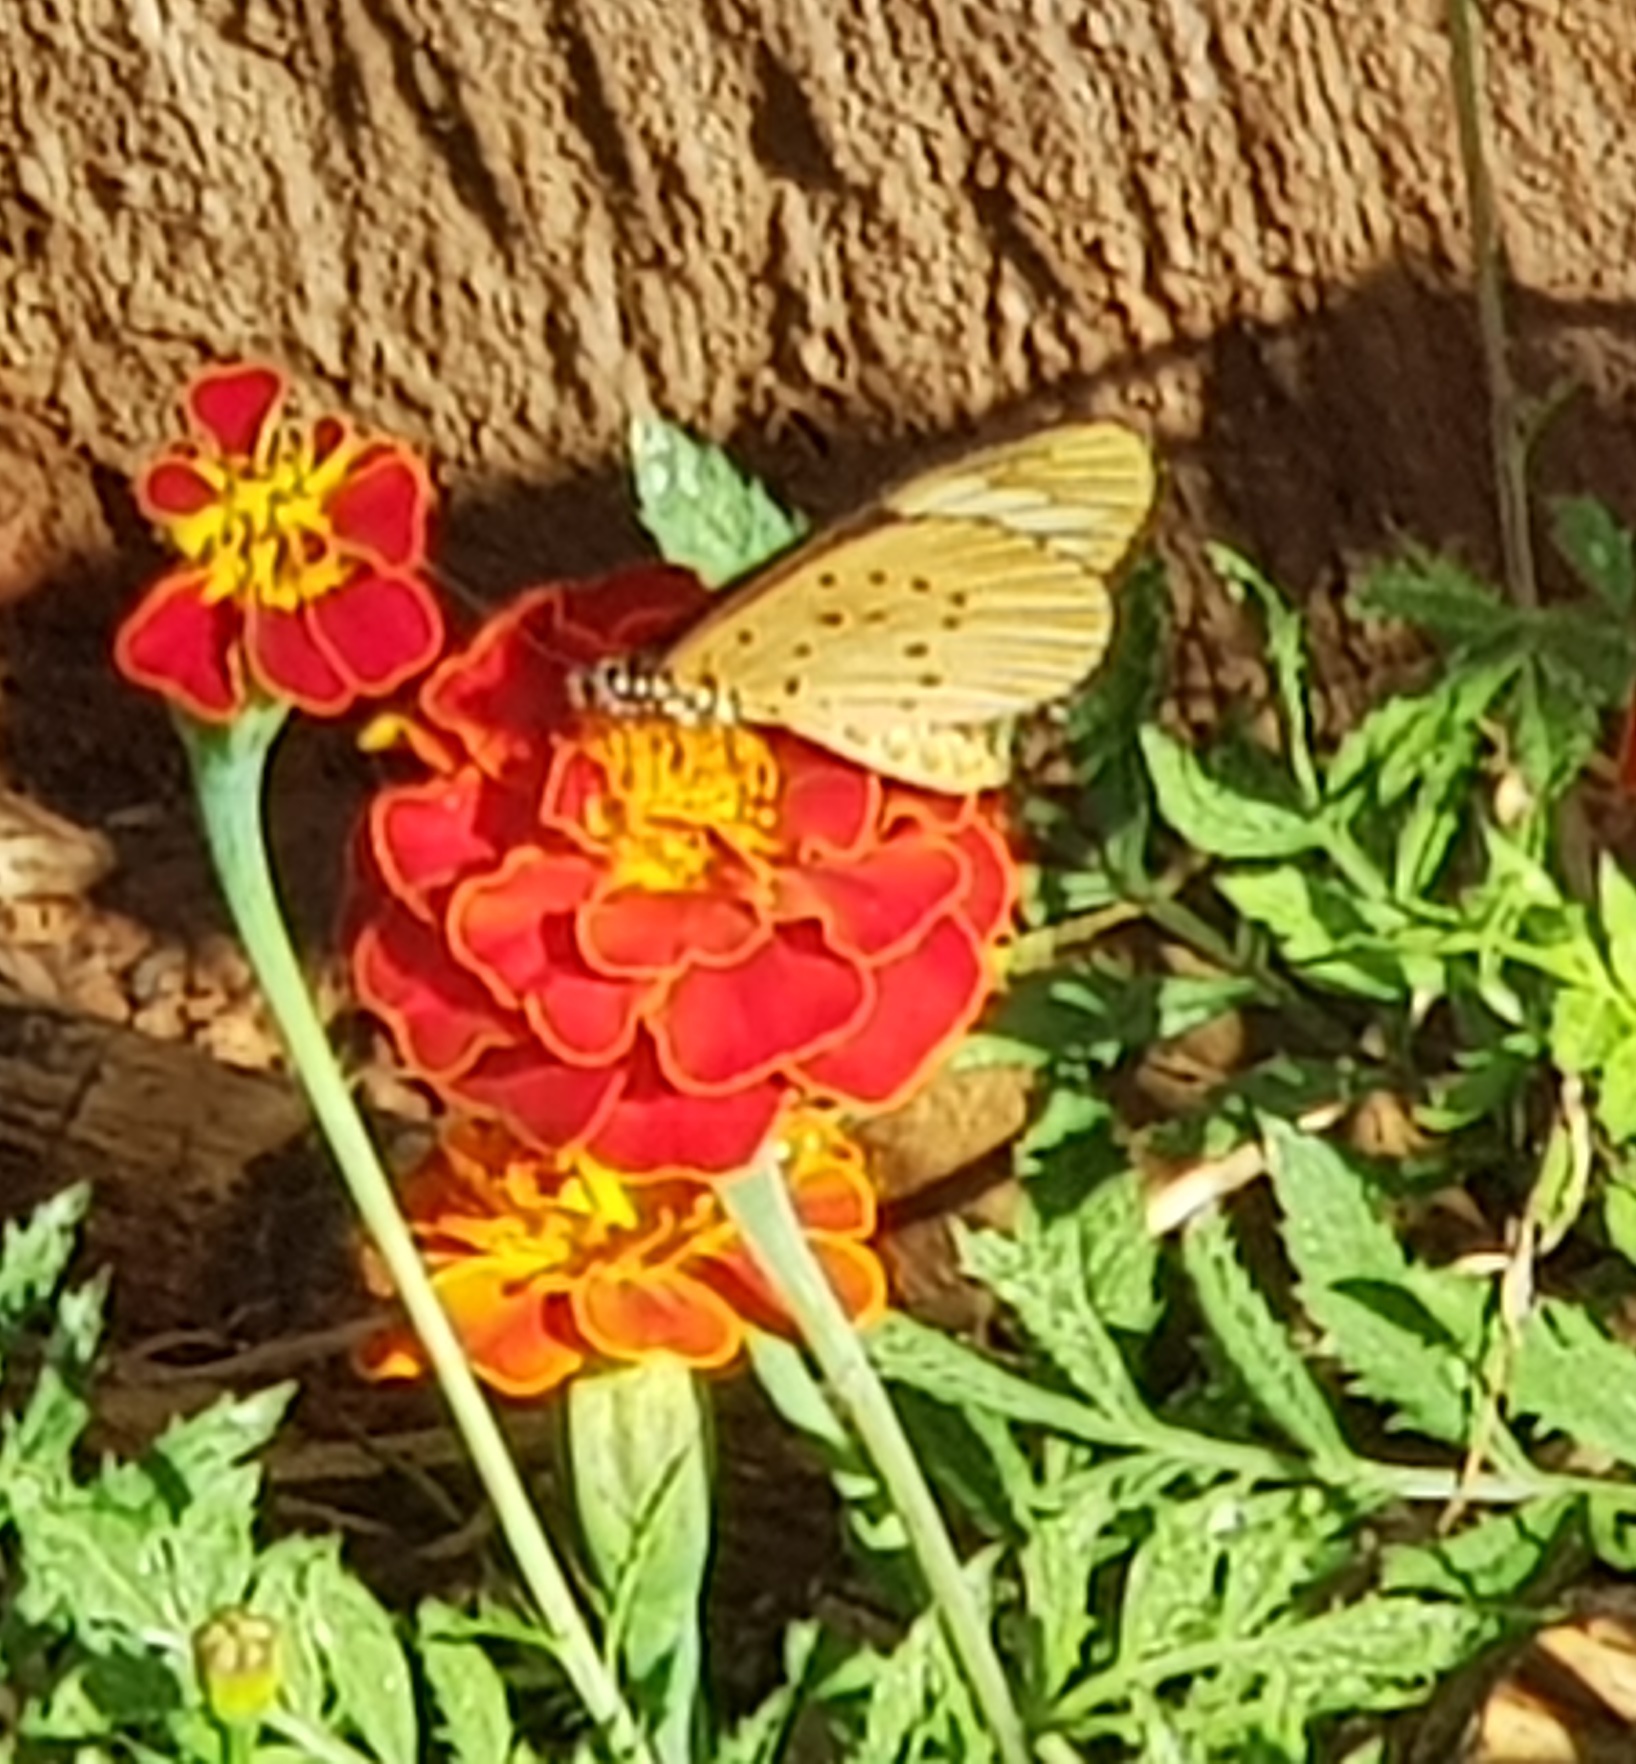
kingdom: Animalia
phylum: Arthropoda
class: Insecta
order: Lepidoptera
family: Nymphalidae
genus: Acraea
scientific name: Acraea Telchinia encedon
